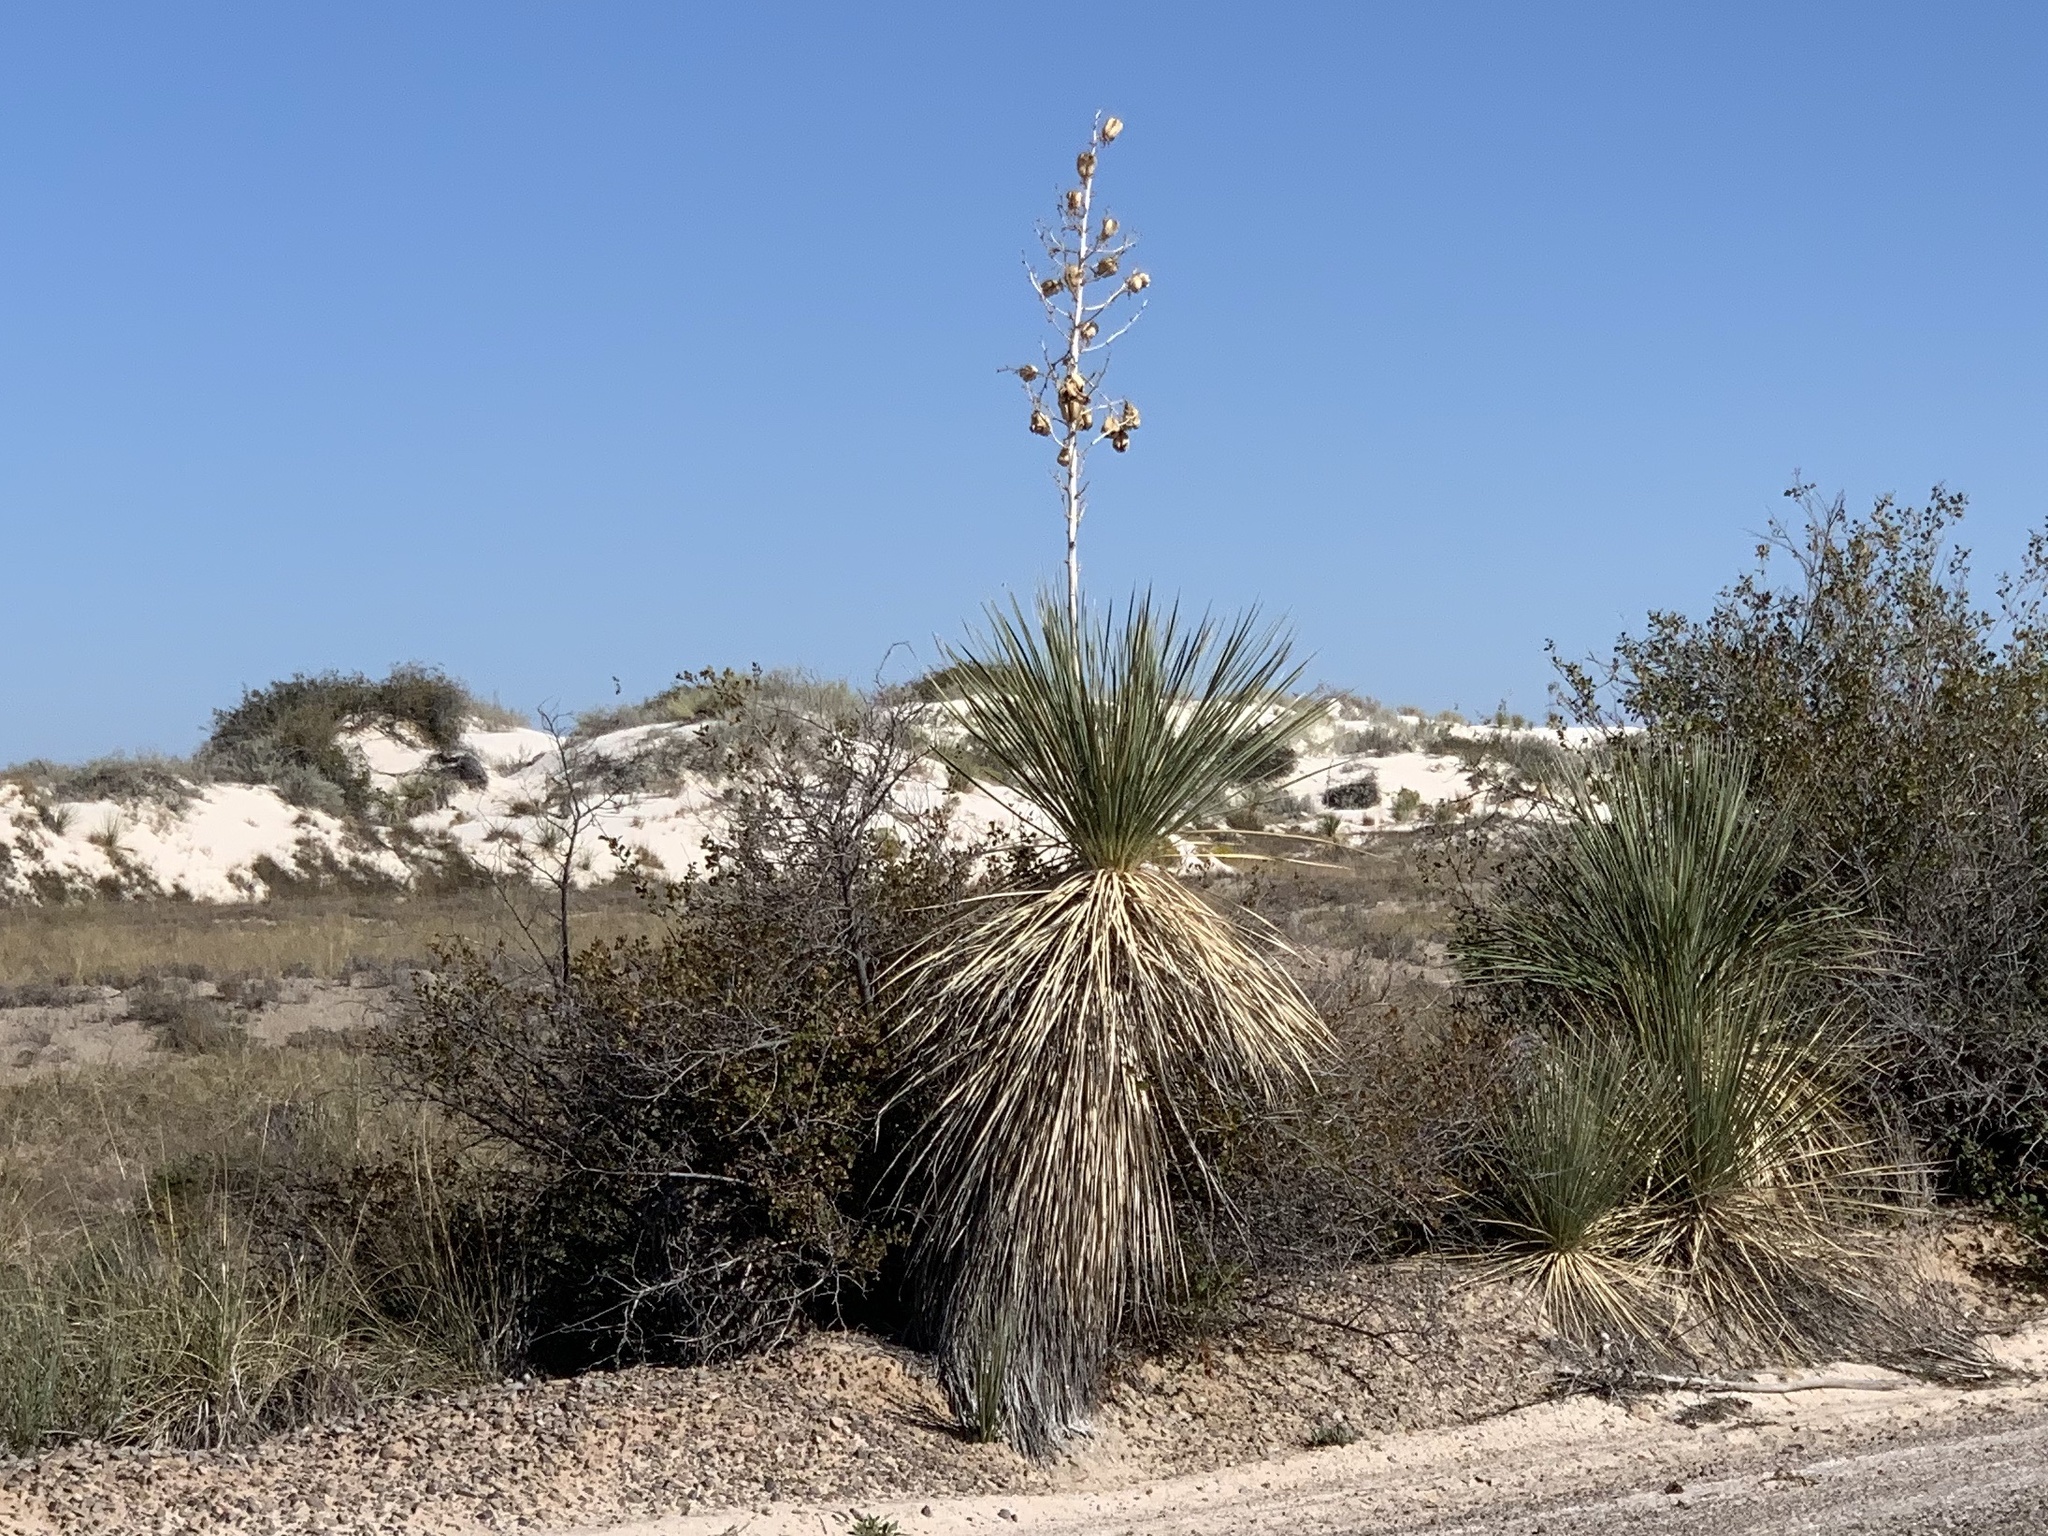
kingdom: Plantae
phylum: Tracheophyta
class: Liliopsida
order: Asparagales
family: Asparagaceae
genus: Yucca
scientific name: Yucca elata
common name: Palmella
